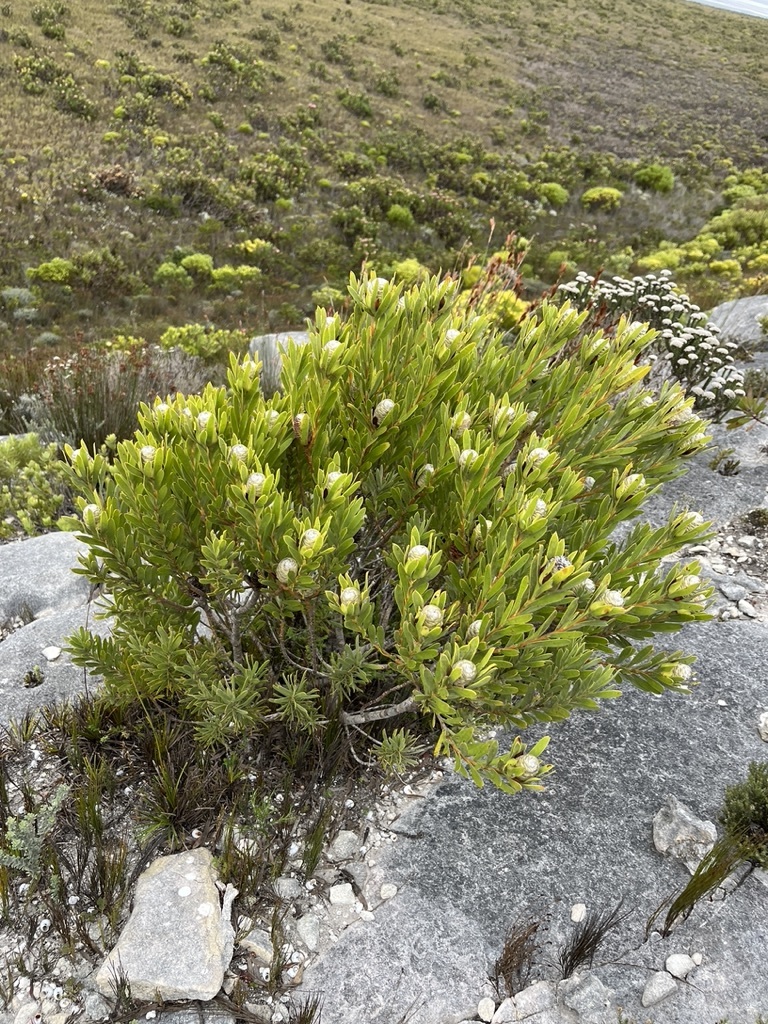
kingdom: Plantae
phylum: Tracheophyta
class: Magnoliopsida
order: Proteales
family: Proteaceae
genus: Leucadendron
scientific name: Leucadendron meridianum
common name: Limestone conebush
